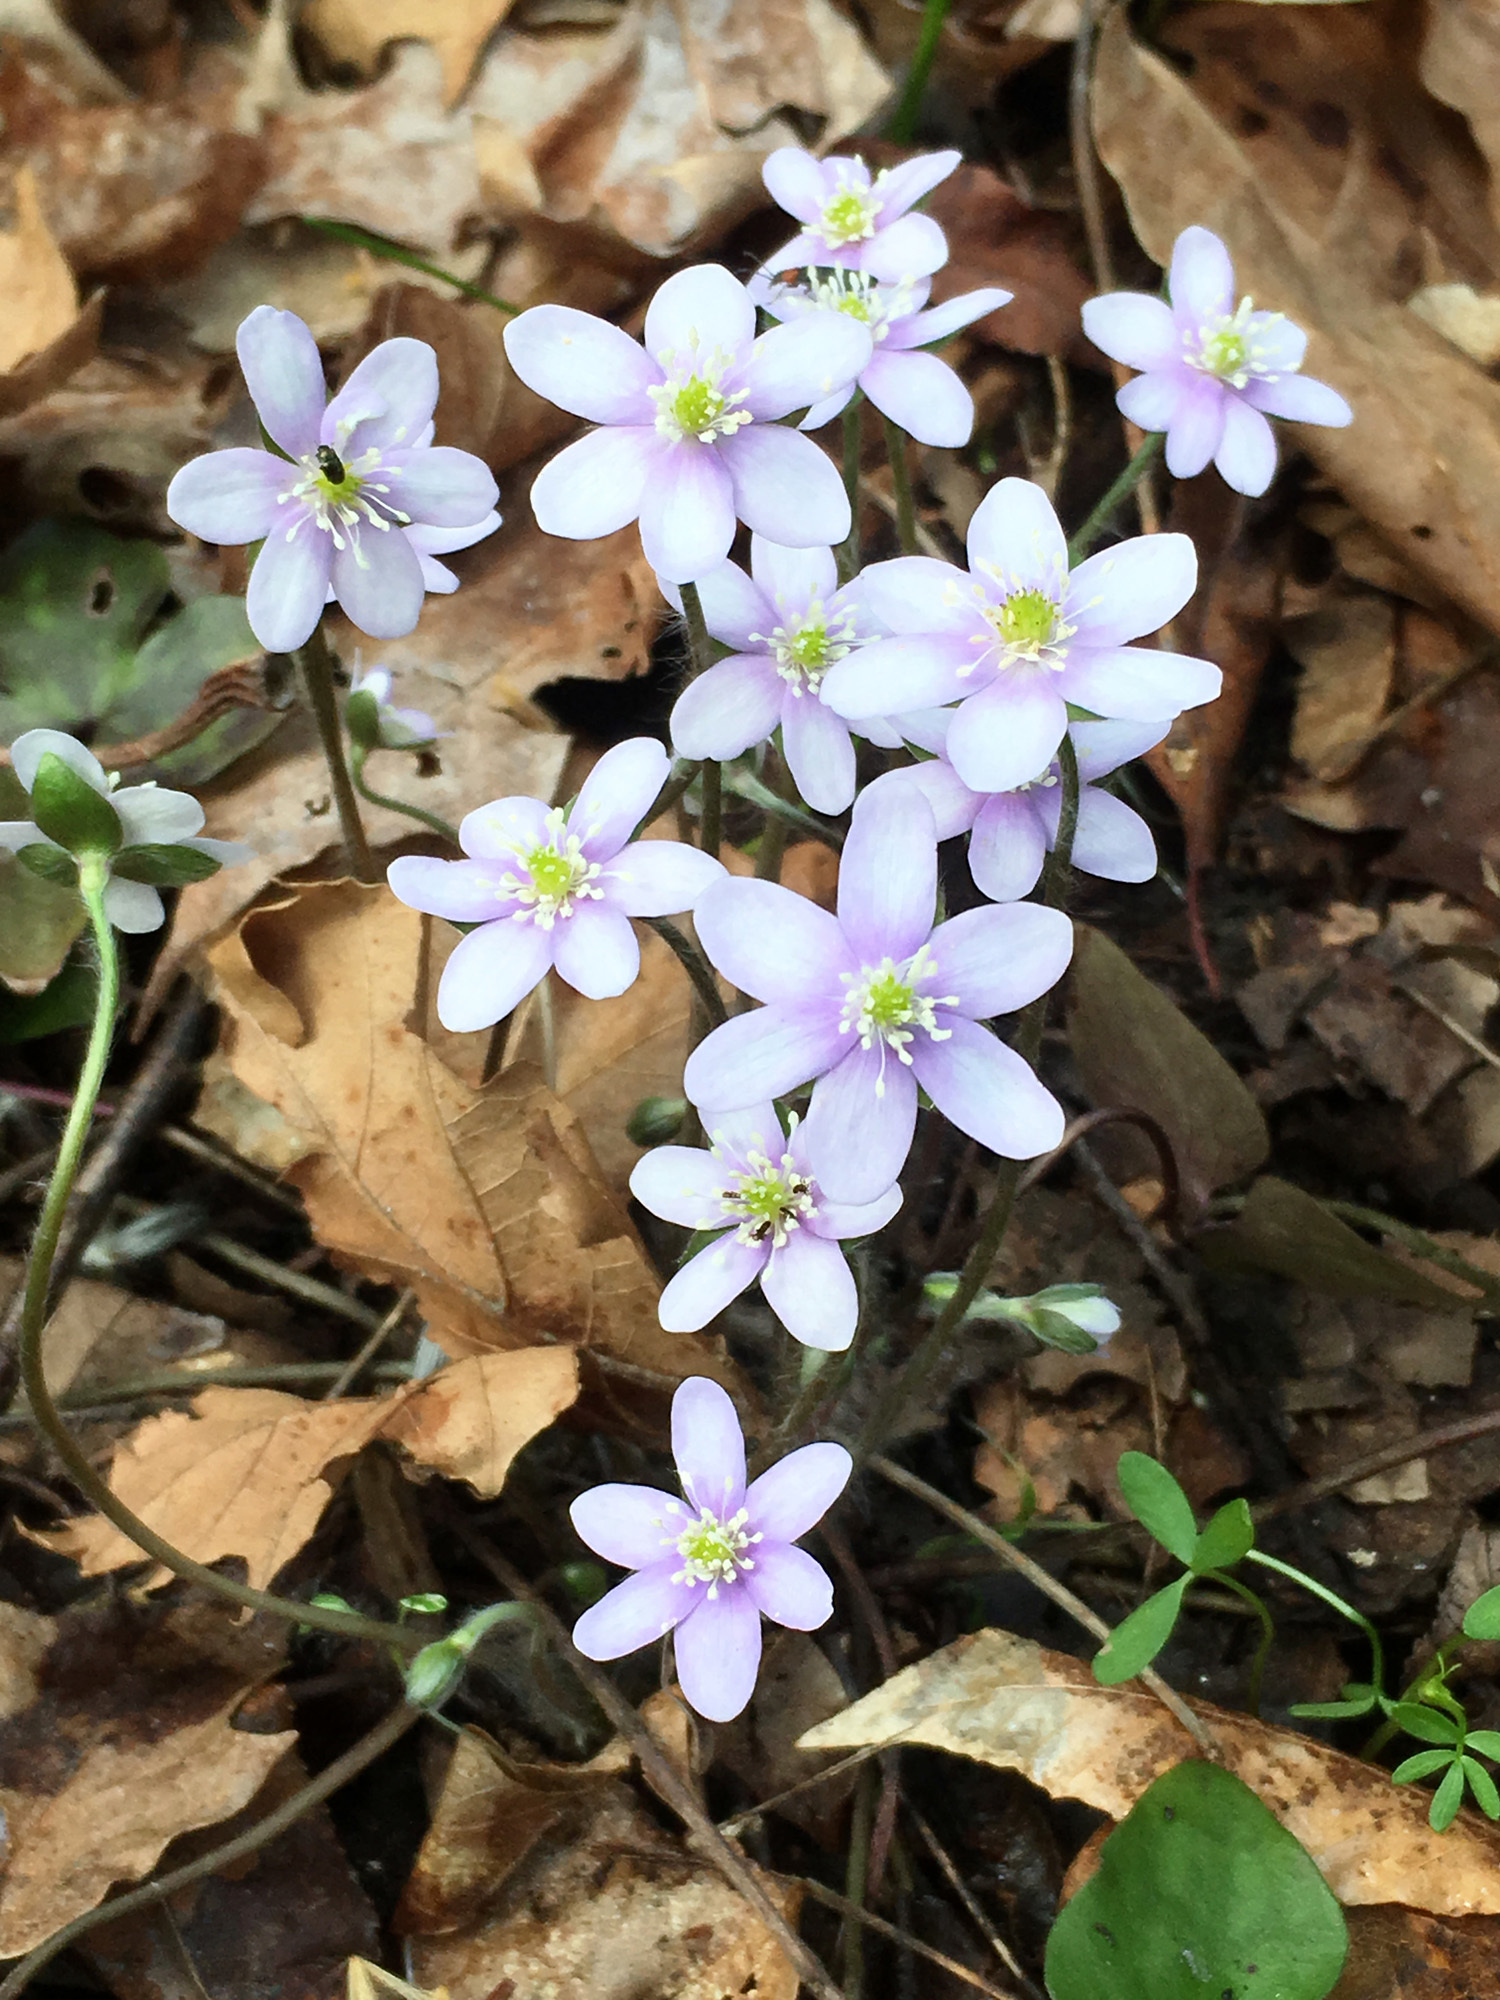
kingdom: Plantae
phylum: Tracheophyta
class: Magnoliopsida
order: Ranunculales
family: Ranunculaceae
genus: Hepatica
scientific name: Hepatica acutiloba
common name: Sharp-lobed hepatica
